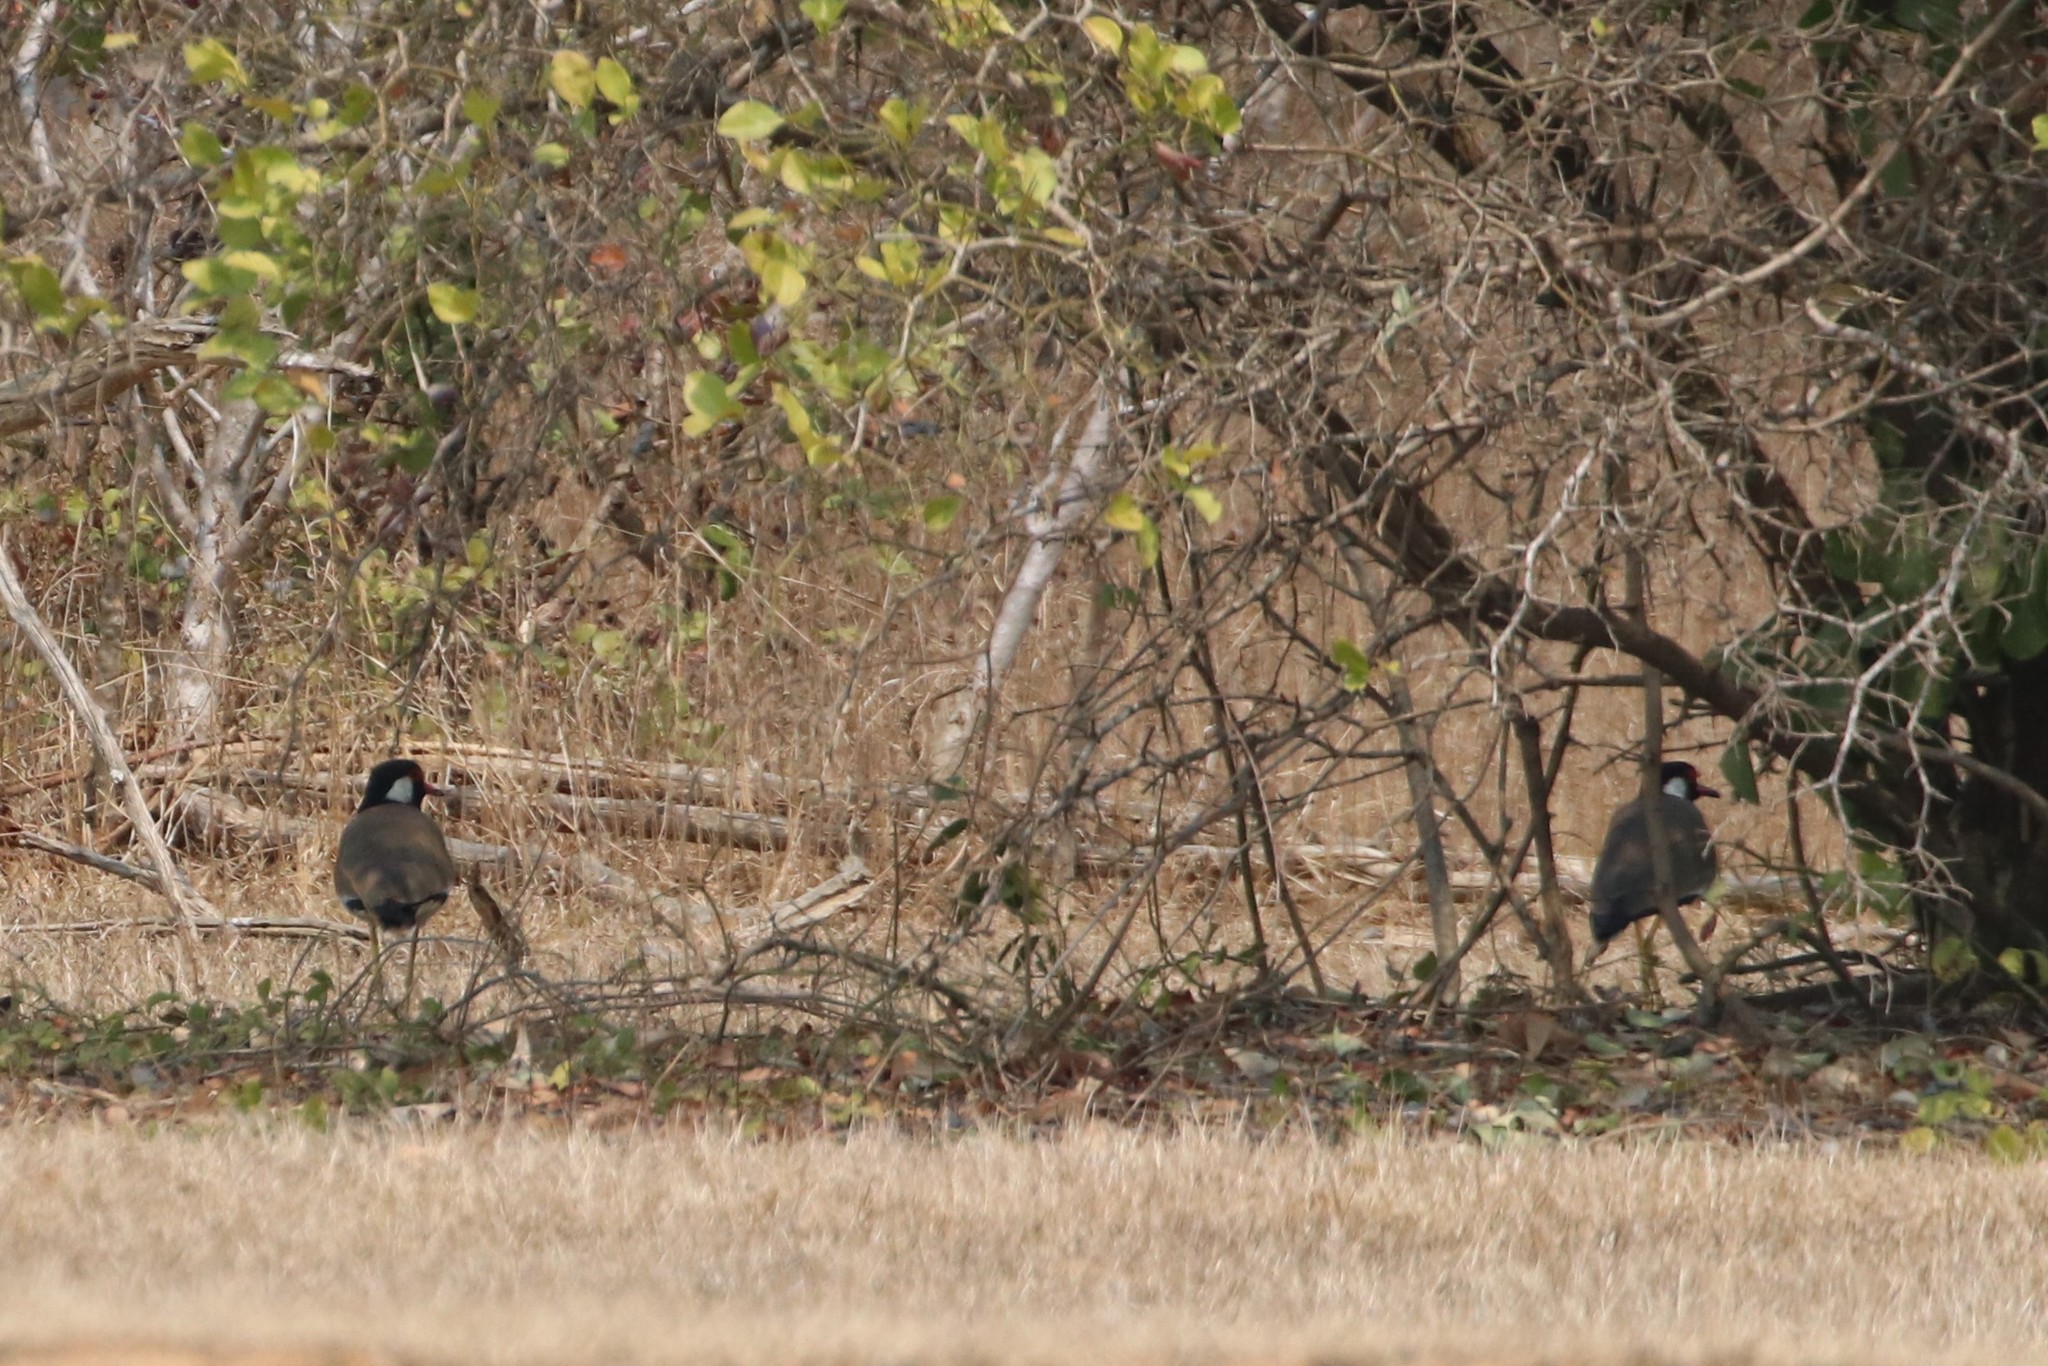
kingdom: Animalia
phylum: Chordata
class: Aves
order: Charadriiformes
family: Charadriidae
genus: Vanellus
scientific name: Vanellus indicus
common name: Red-wattled lapwing
